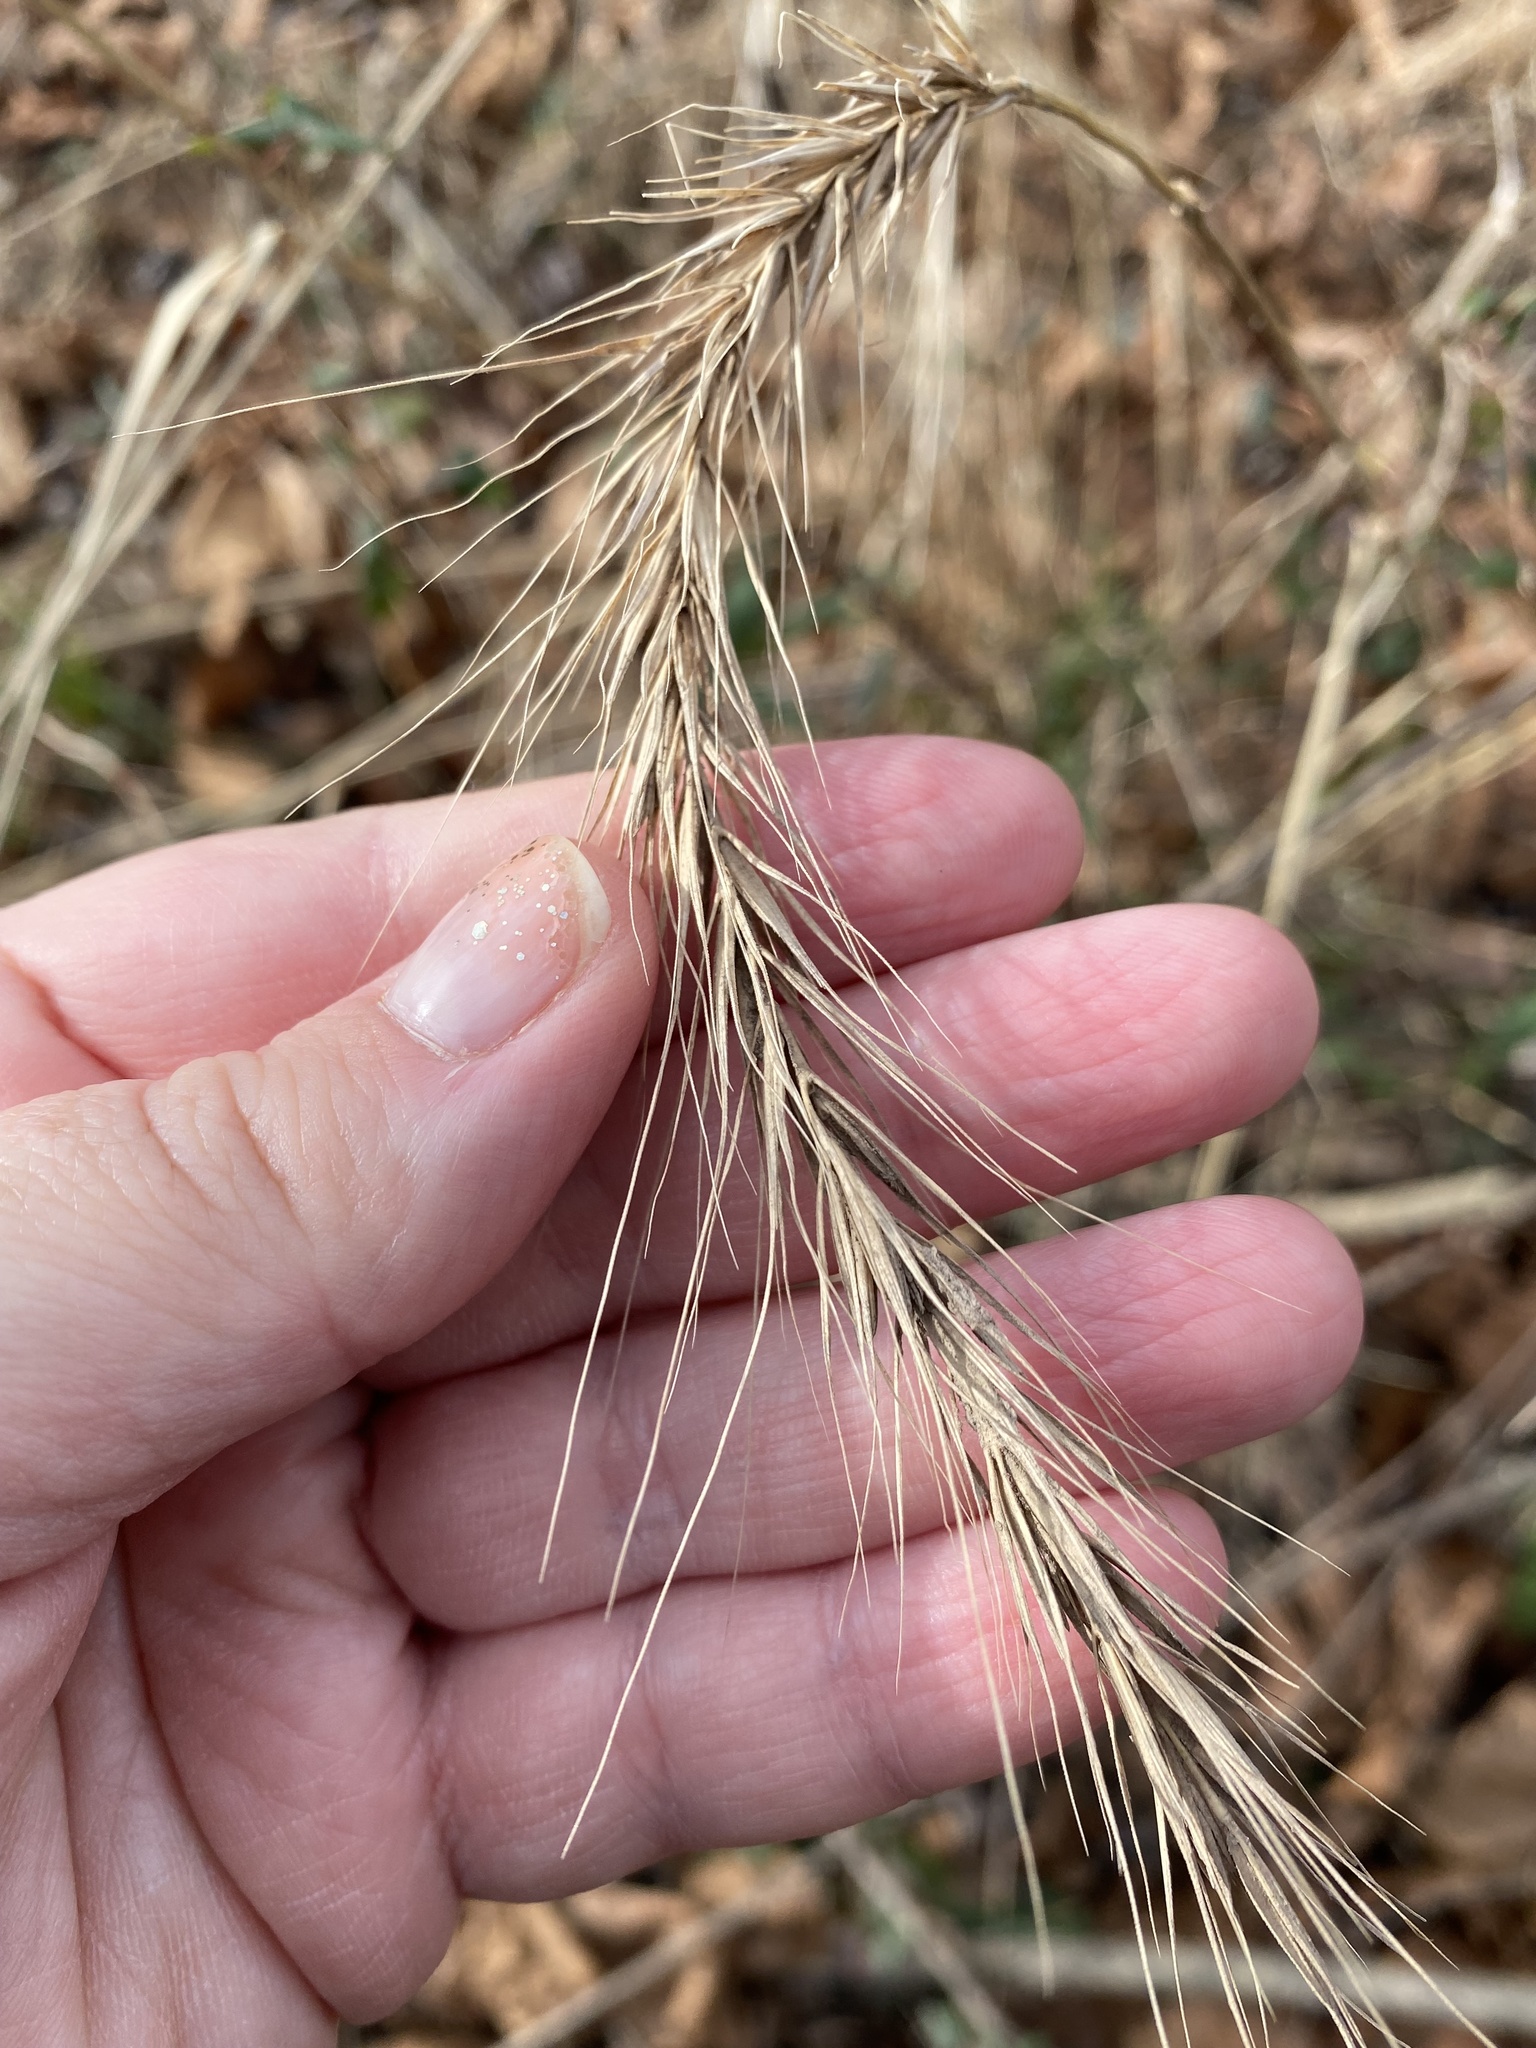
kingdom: Plantae
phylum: Tracheophyta
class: Liliopsida
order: Poales
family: Poaceae
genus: Elymus
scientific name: Elymus riparius
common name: Eastern riverbank wild rye
